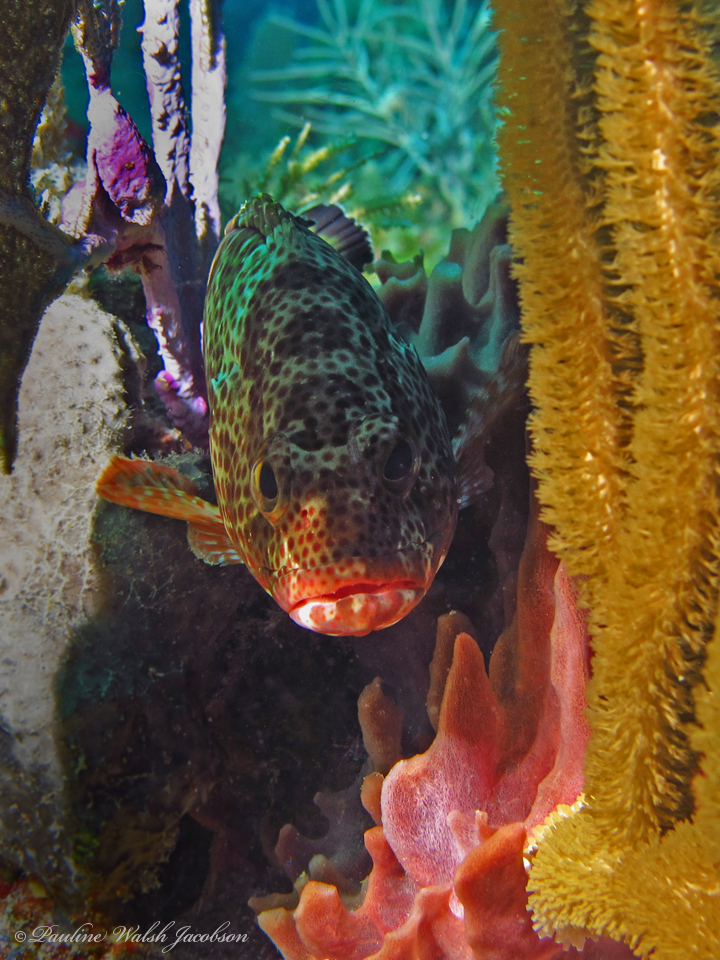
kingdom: Animalia
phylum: Chordata
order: Perciformes
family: Serranidae
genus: Epinephelus
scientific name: Epinephelus guttatus
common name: Red hind
